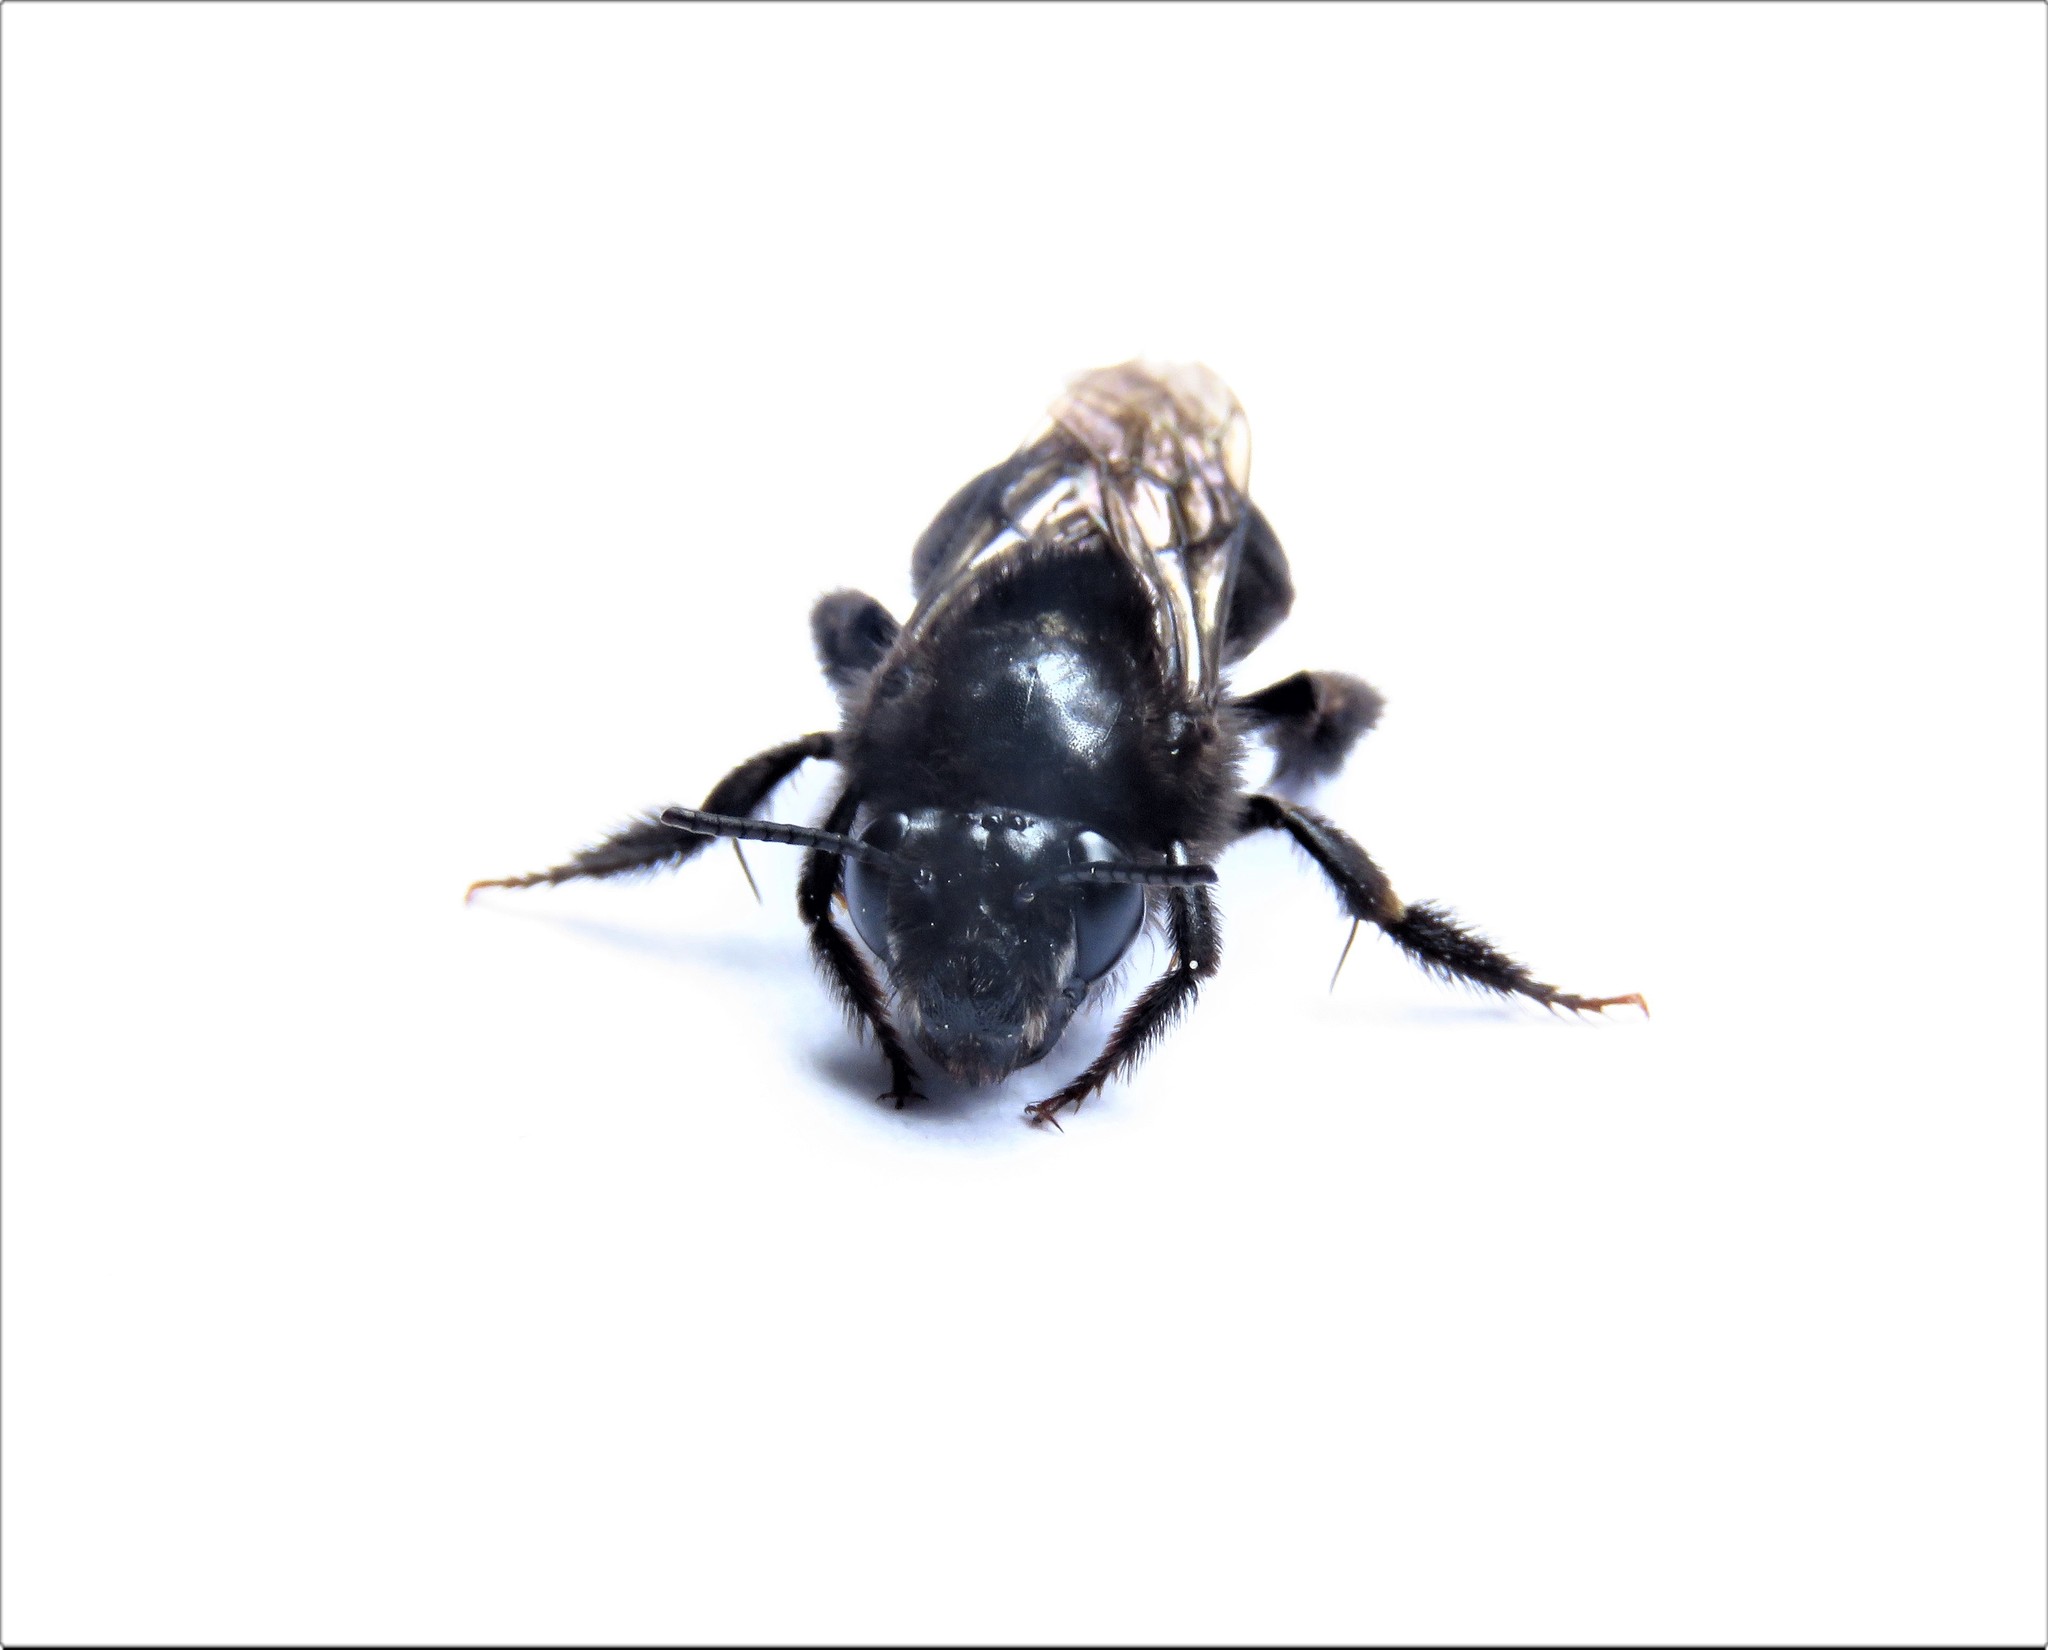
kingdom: Animalia
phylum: Arthropoda
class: Insecta
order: Hymenoptera
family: Apidae
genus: Thygater
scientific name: Thygater aethiops
